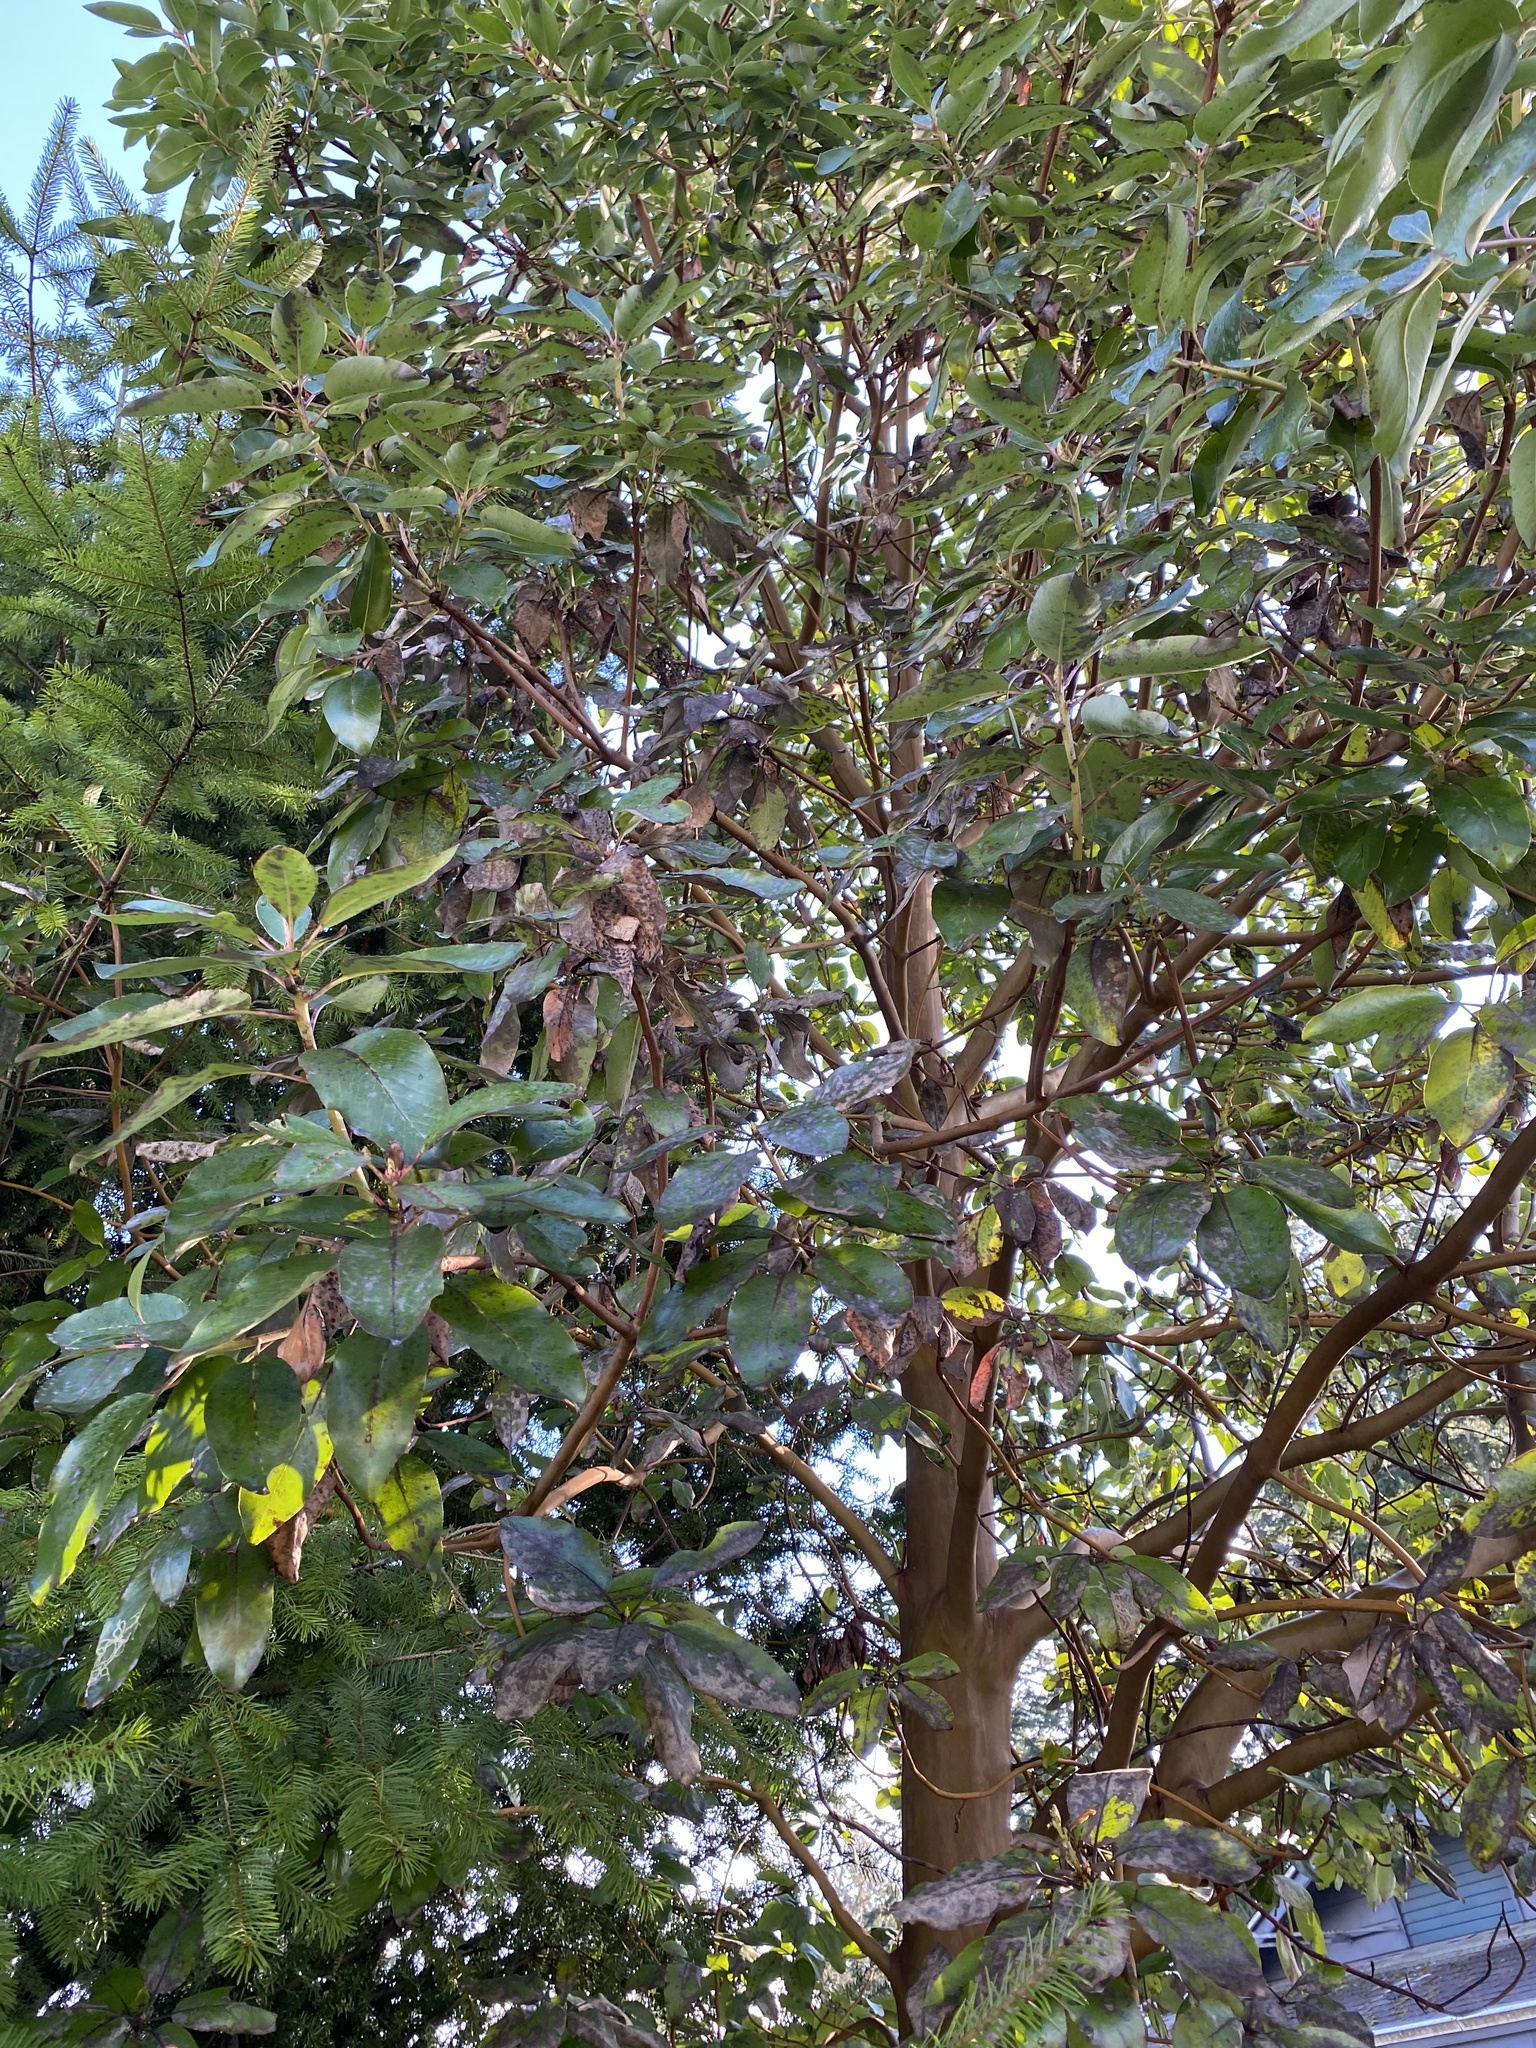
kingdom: Plantae
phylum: Tracheophyta
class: Magnoliopsida
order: Ericales
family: Ericaceae
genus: Arbutus
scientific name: Arbutus menziesii
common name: Pacific madrone
